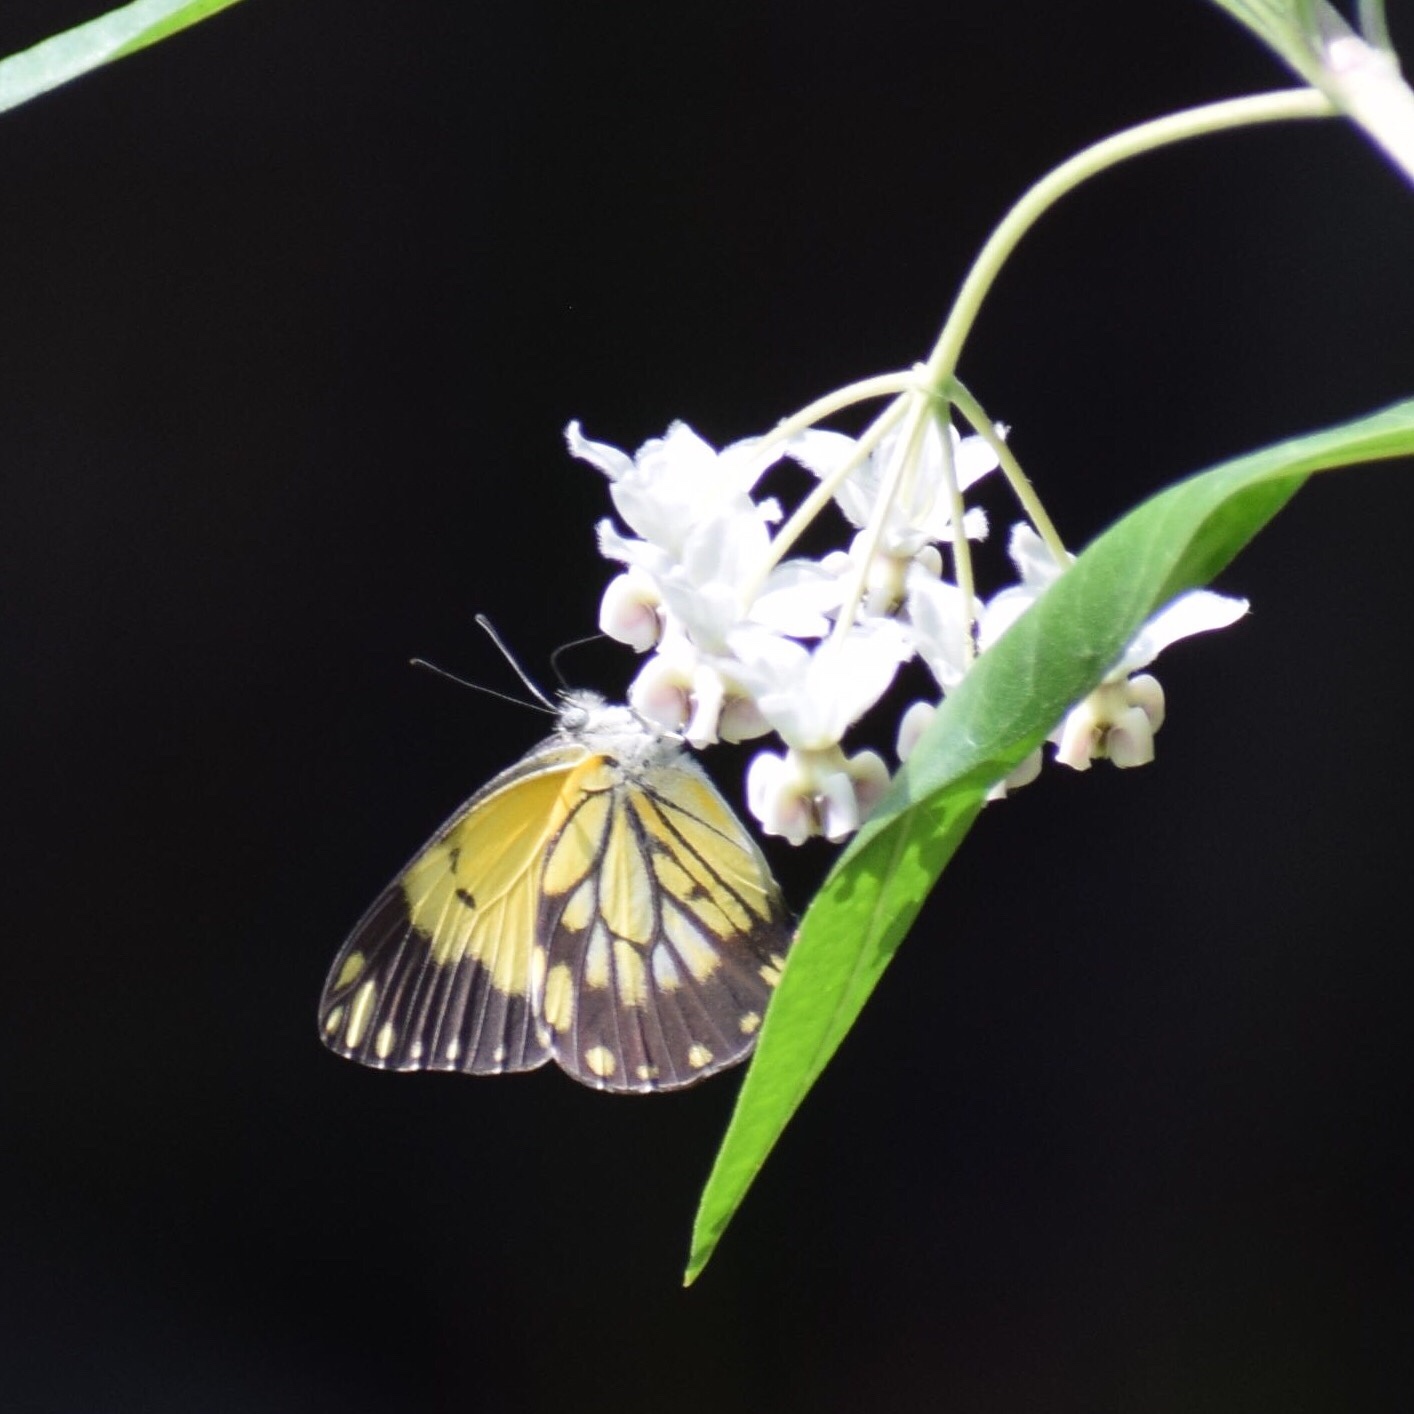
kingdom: Animalia
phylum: Arthropoda
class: Insecta
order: Lepidoptera
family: Pieridae
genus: Belenois
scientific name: Belenois creona
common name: African caper white
